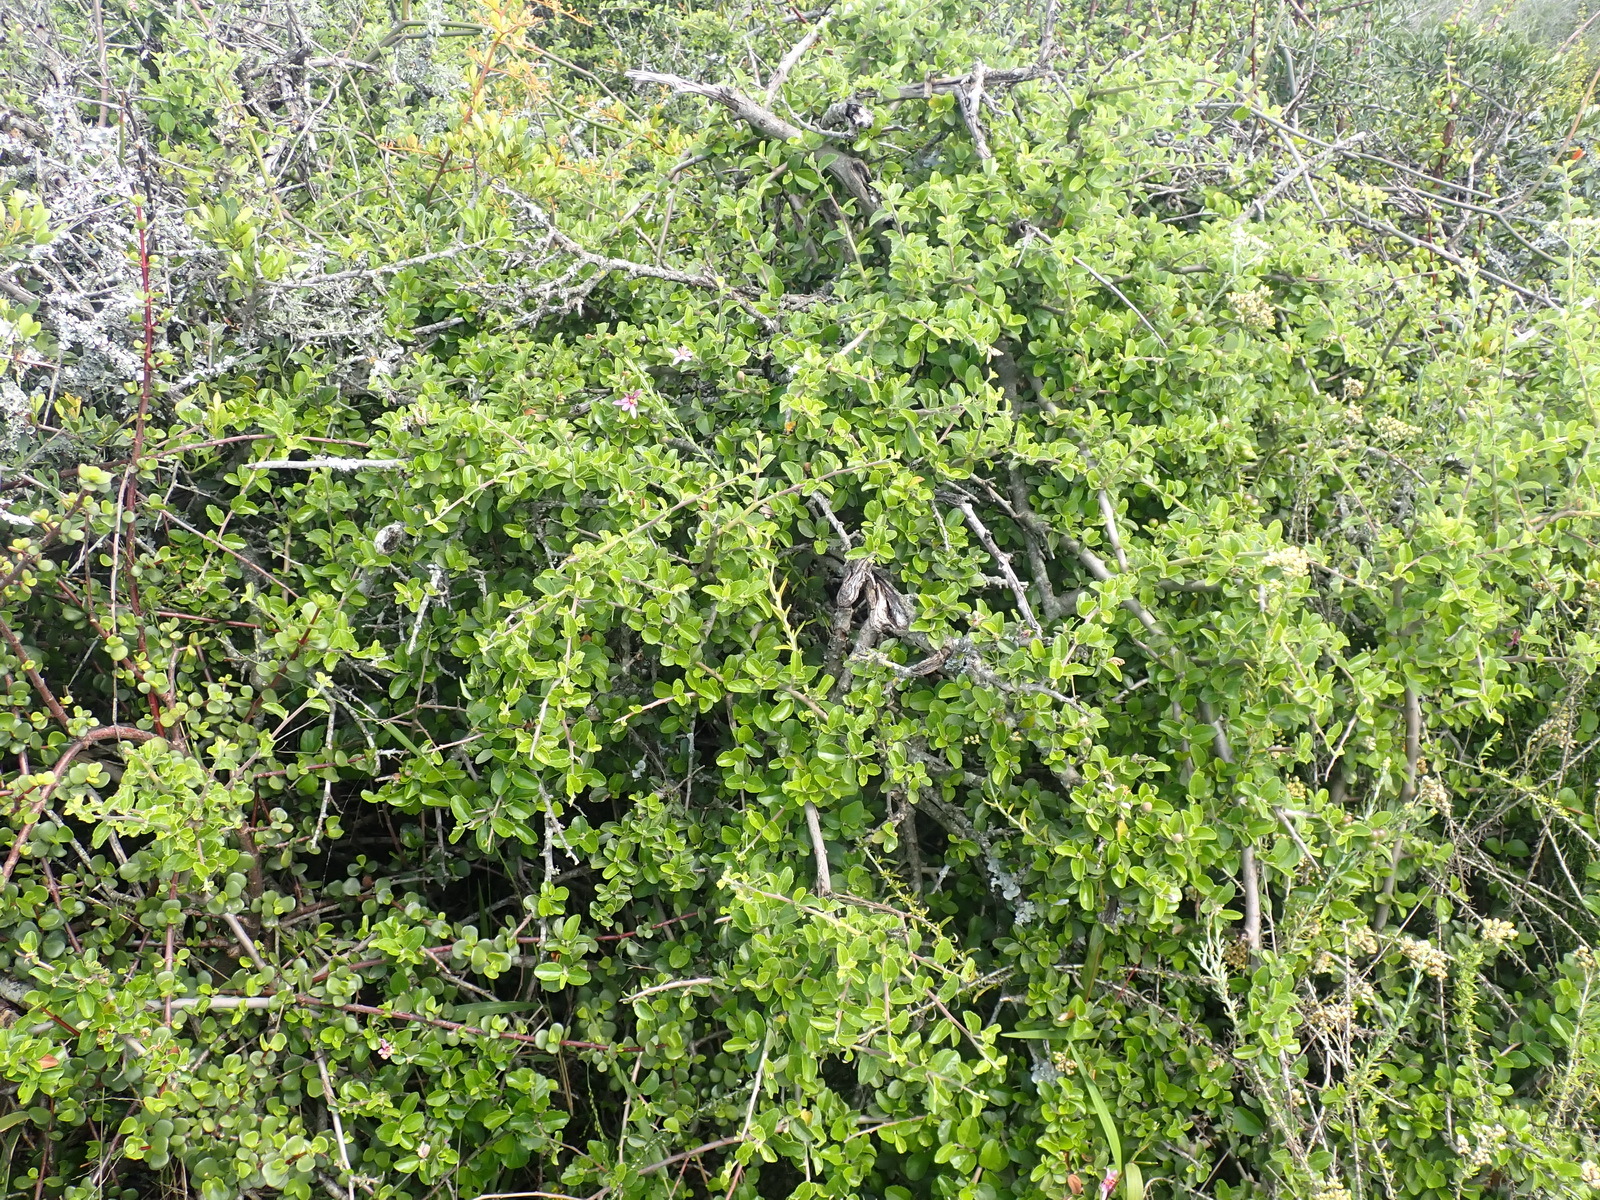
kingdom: Plantae
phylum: Tracheophyta
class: Magnoliopsida
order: Malvales
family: Malvaceae
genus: Grewia
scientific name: Grewia occidentalis
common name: Crossberry
